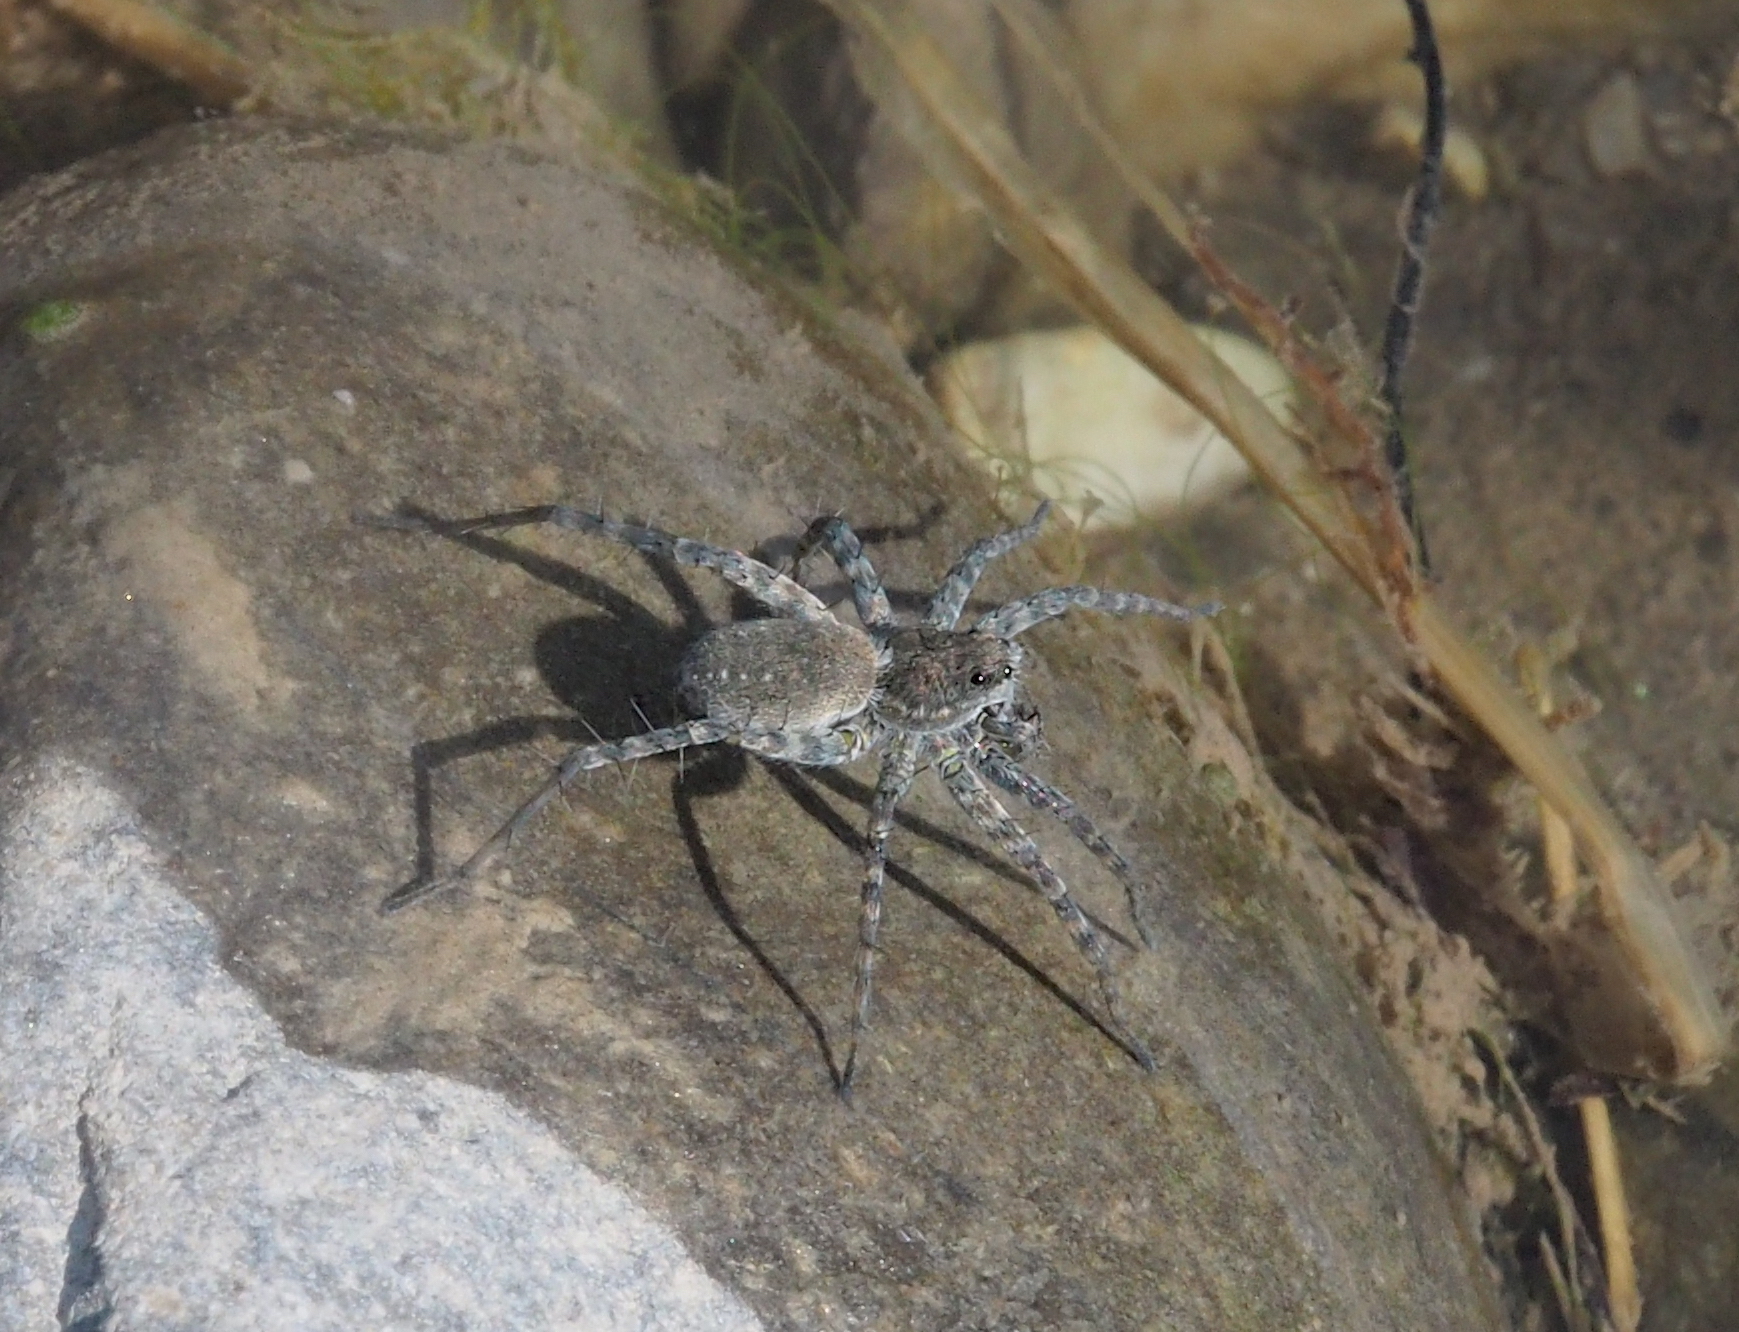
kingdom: Animalia
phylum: Arthropoda
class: Arachnida
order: Araneae
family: Lycosidae
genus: Pardosa
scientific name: Pardosa wagleri
